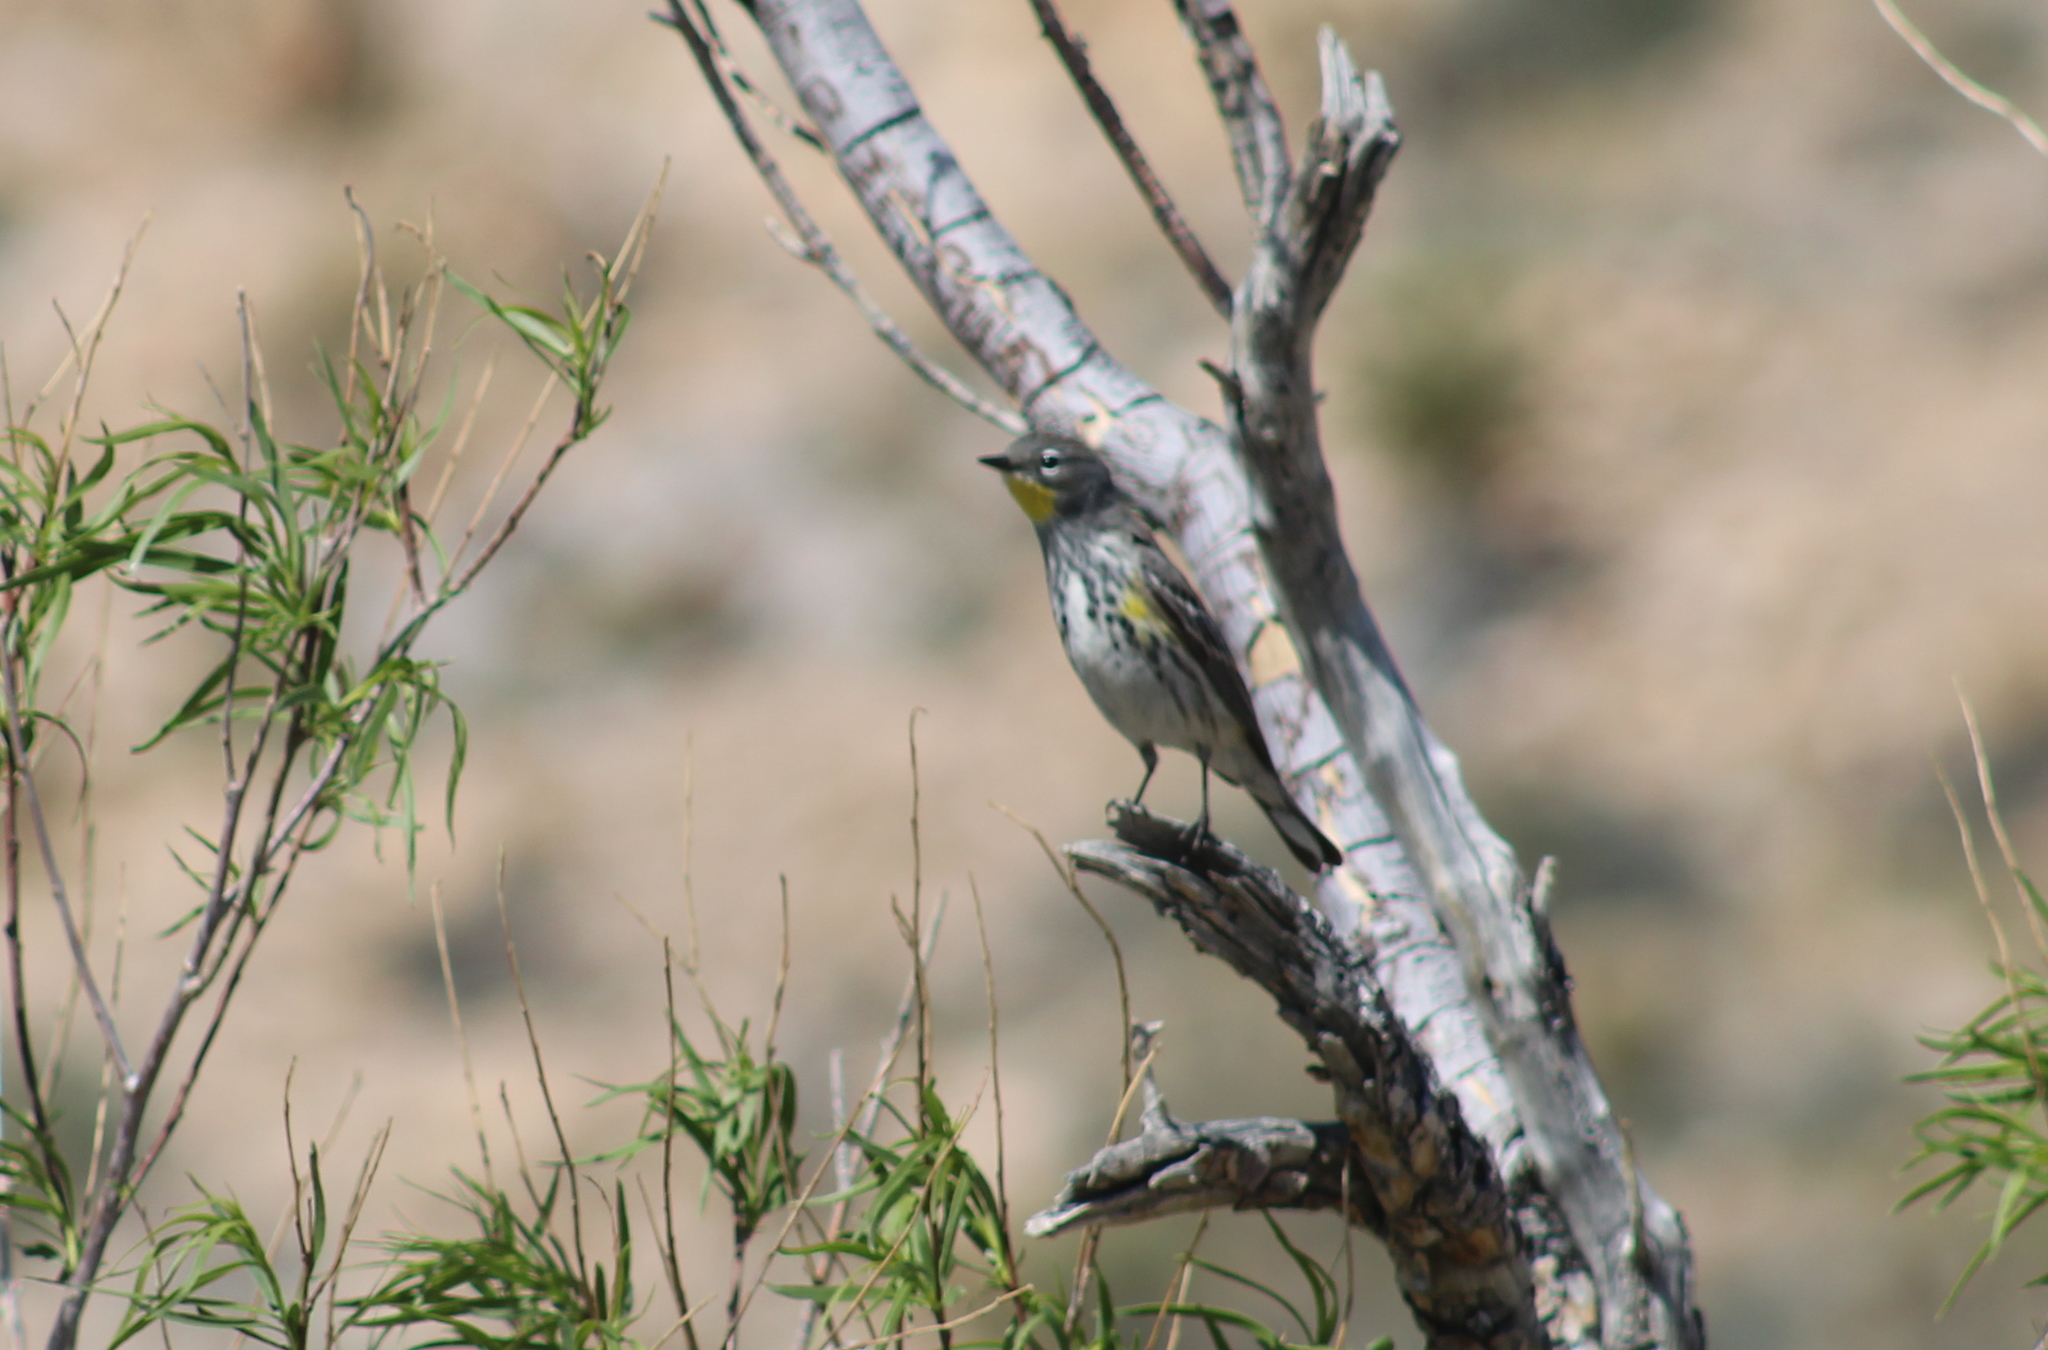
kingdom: Animalia
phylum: Chordata
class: Aves
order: Passeriformes
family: Parulidae
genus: Setophaga
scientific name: Setophaga coronata
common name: Myrtle warbler
